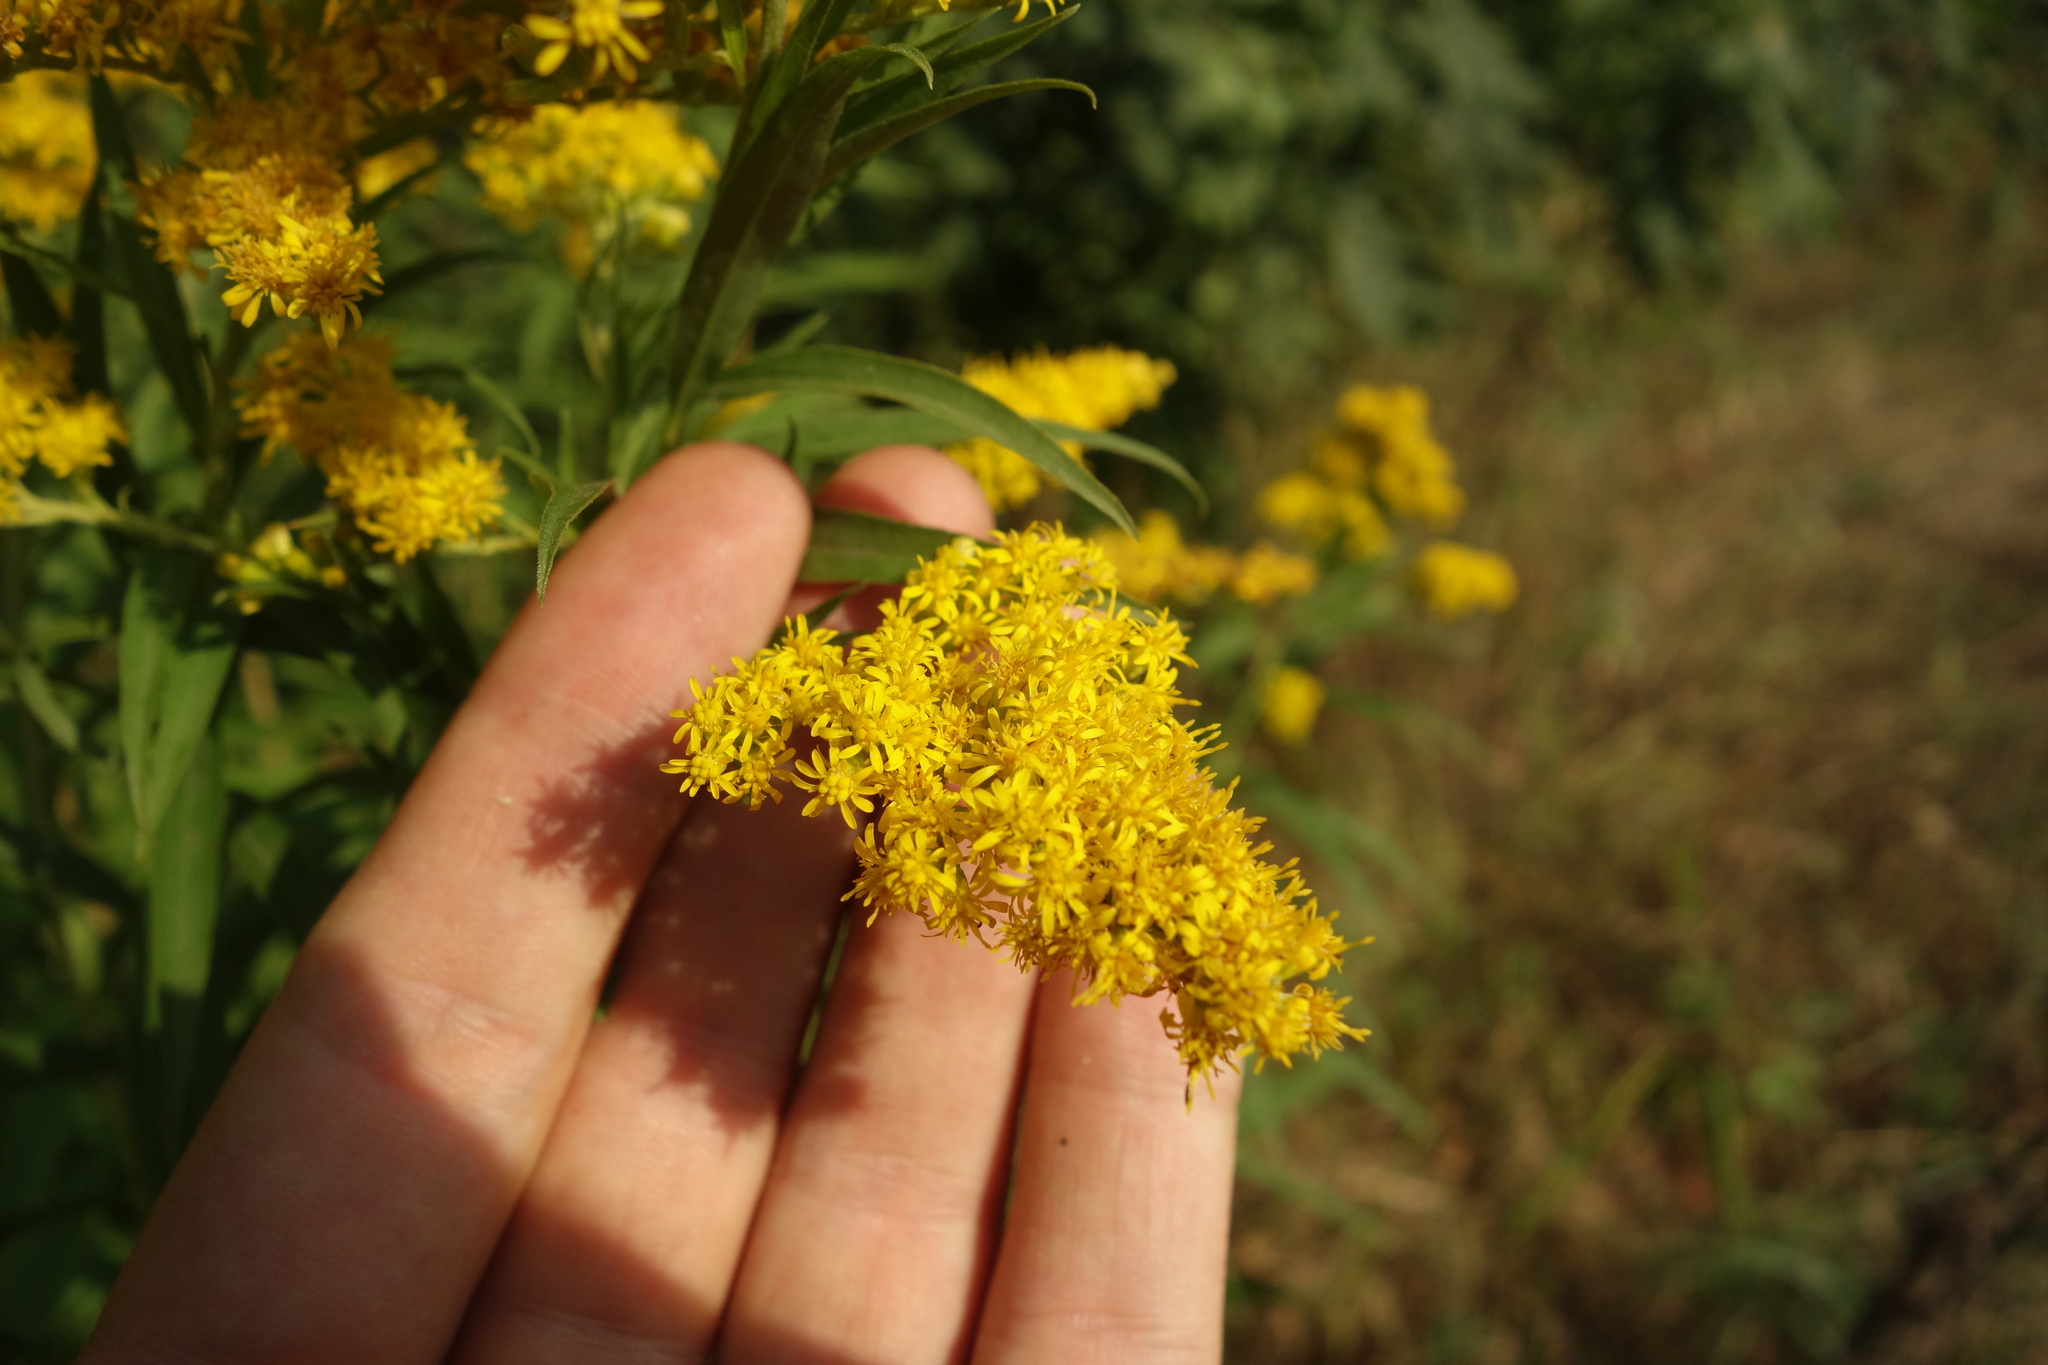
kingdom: Plantae
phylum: Tracheophyta
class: Magnoliopsida
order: Asterales
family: Asteraceae
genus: Solidago
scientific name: Solidago gigantea
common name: Giant goldenrod
